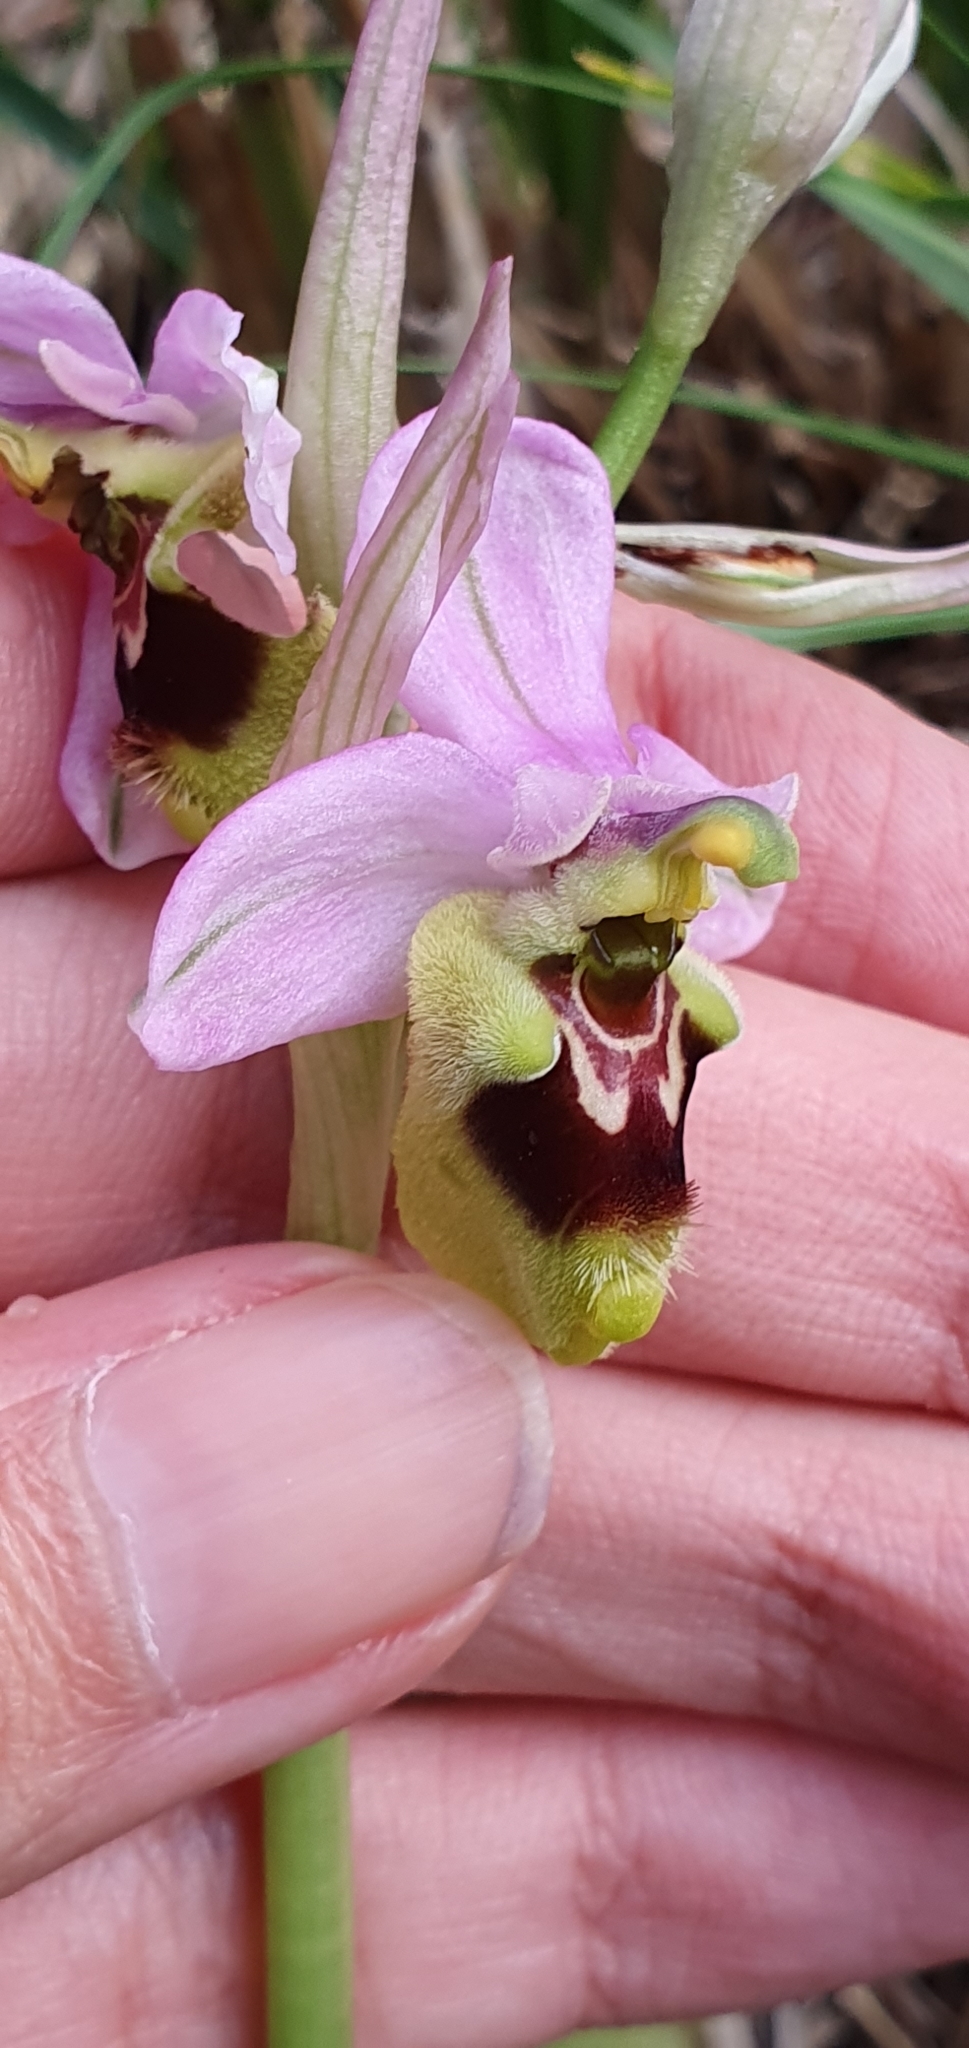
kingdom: Plantae
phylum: Tracheophyta
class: Liliopsida
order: Asparagales
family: Orchidaceae
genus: Ophrys
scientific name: Ophrys tenthredinifera
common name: Sawfly orchid
